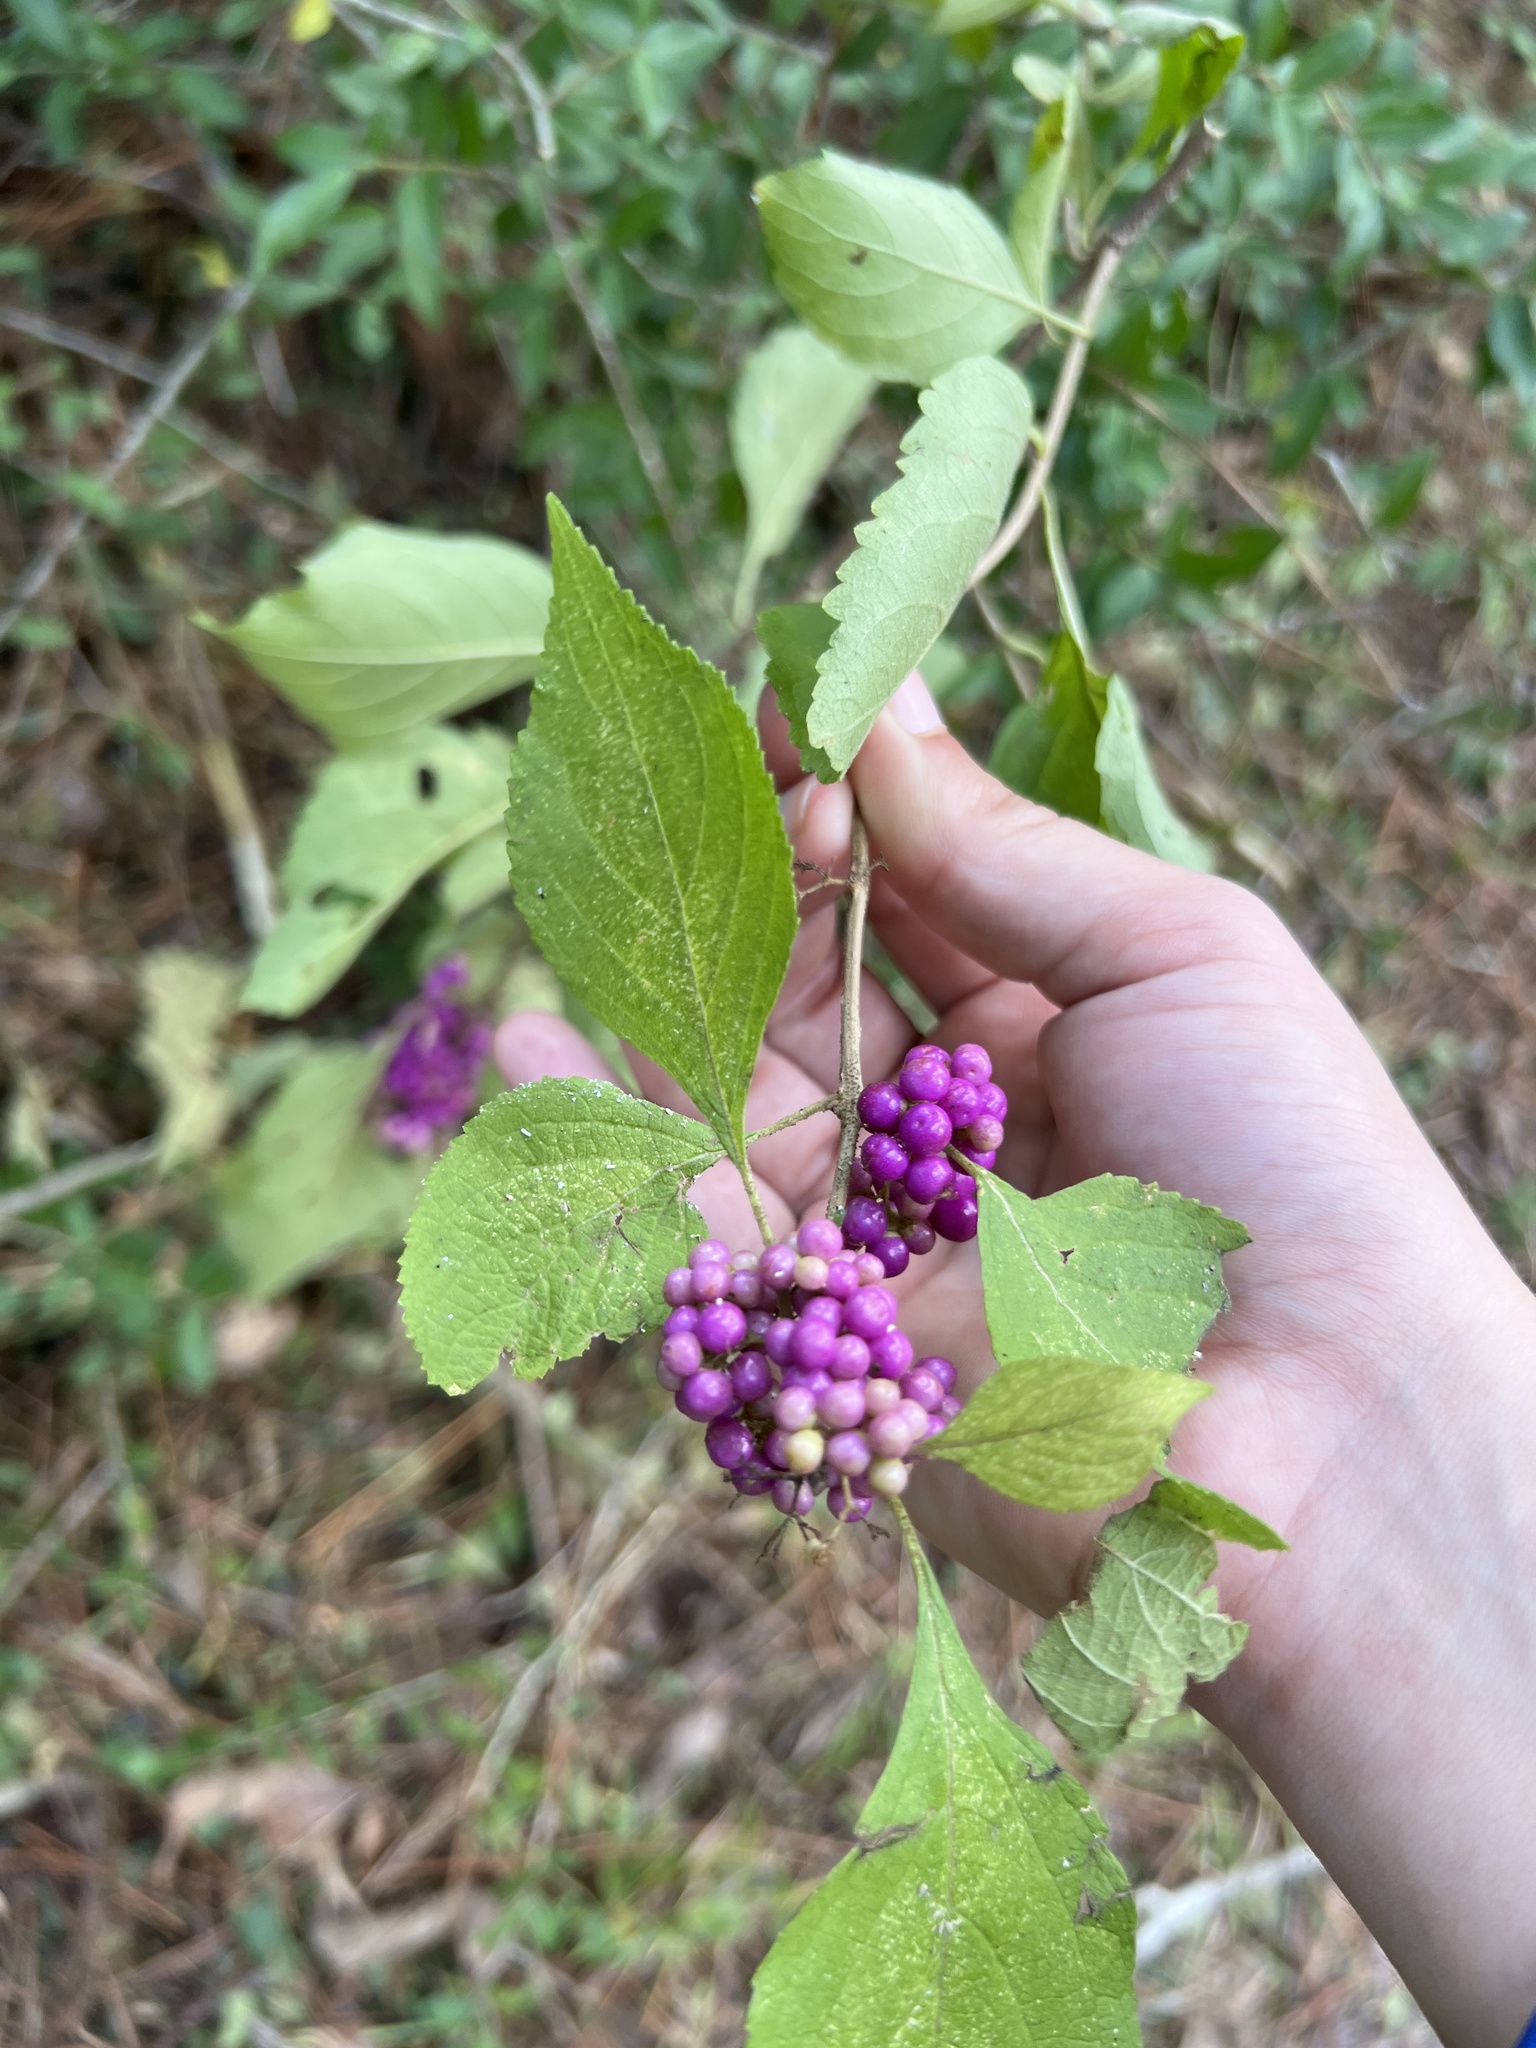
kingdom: Plantae
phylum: Tracheophyta
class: Magnoliopsida
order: Lamiales
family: Lamiaceae
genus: Callicarpa
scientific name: Callicarpa americana
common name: American beautyberry
